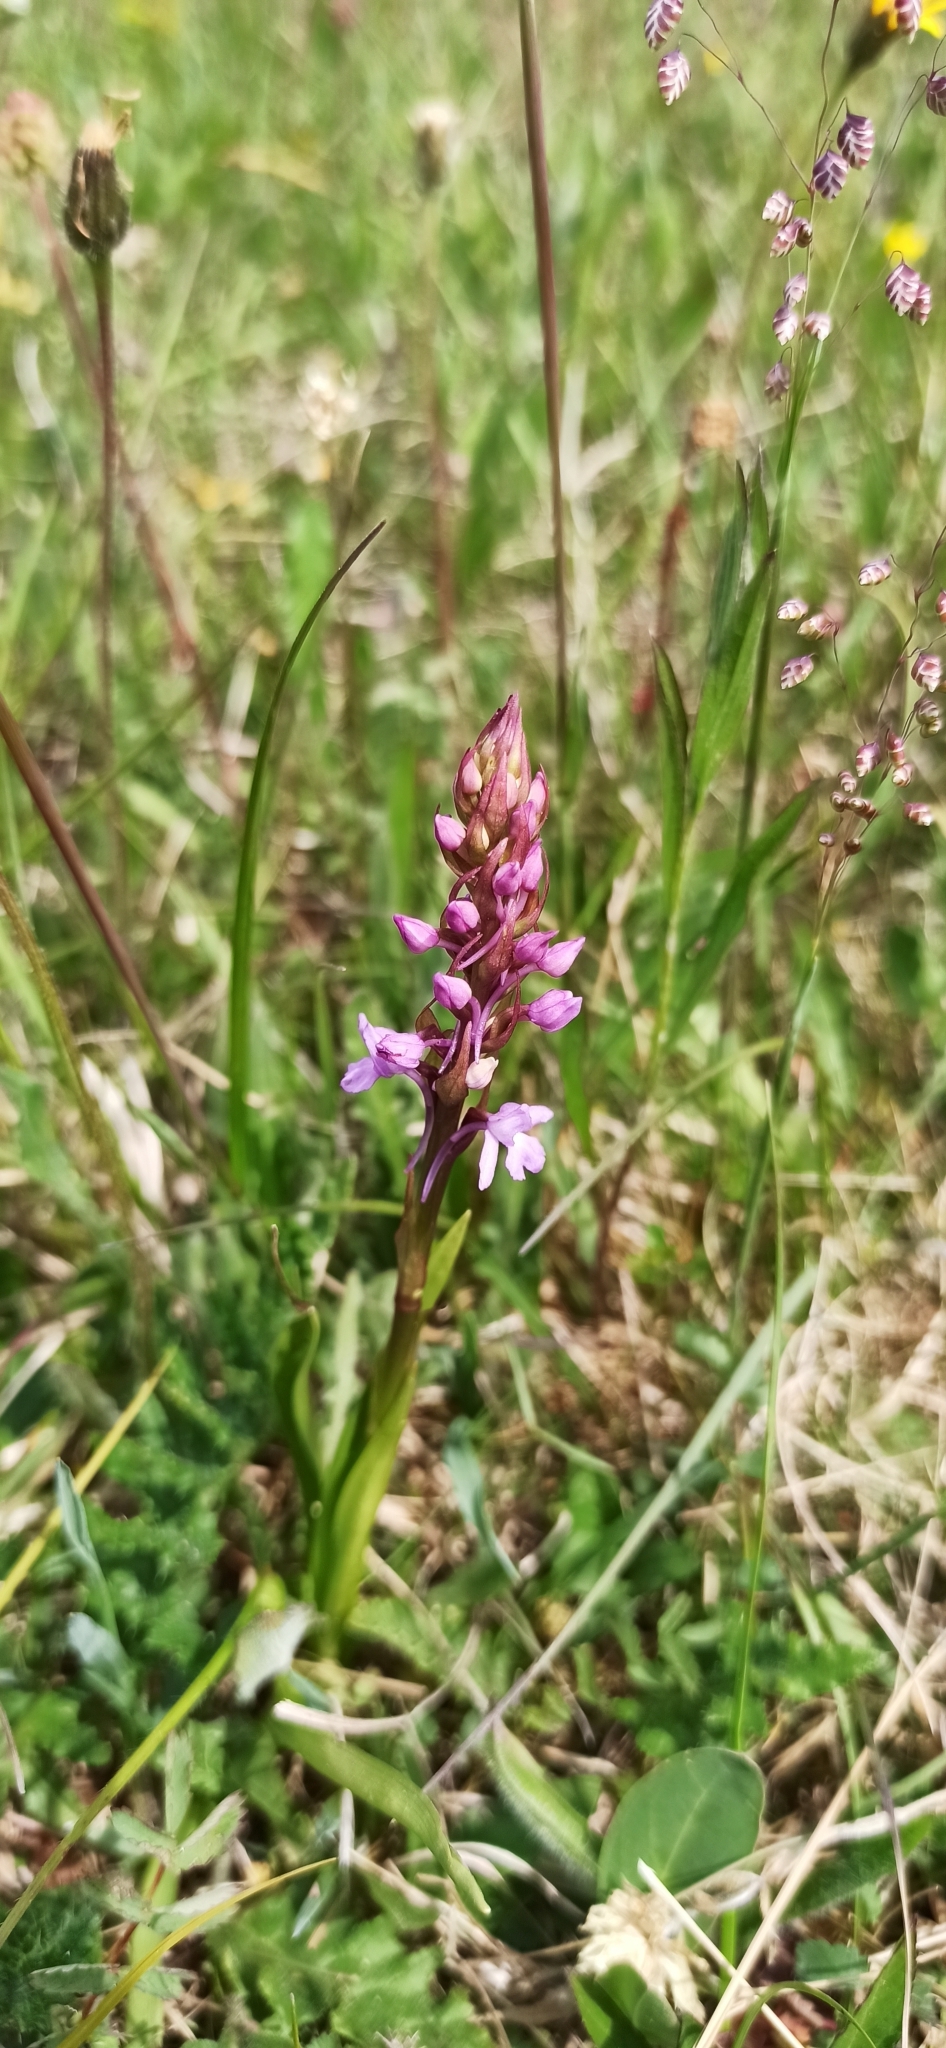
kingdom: Plantae
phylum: Tracheophyta
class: Liliopsida
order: Asparagales
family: Orchidaceae
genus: Gymnadenia
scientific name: Gymnadenia conopsea
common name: Fragrant orchid
